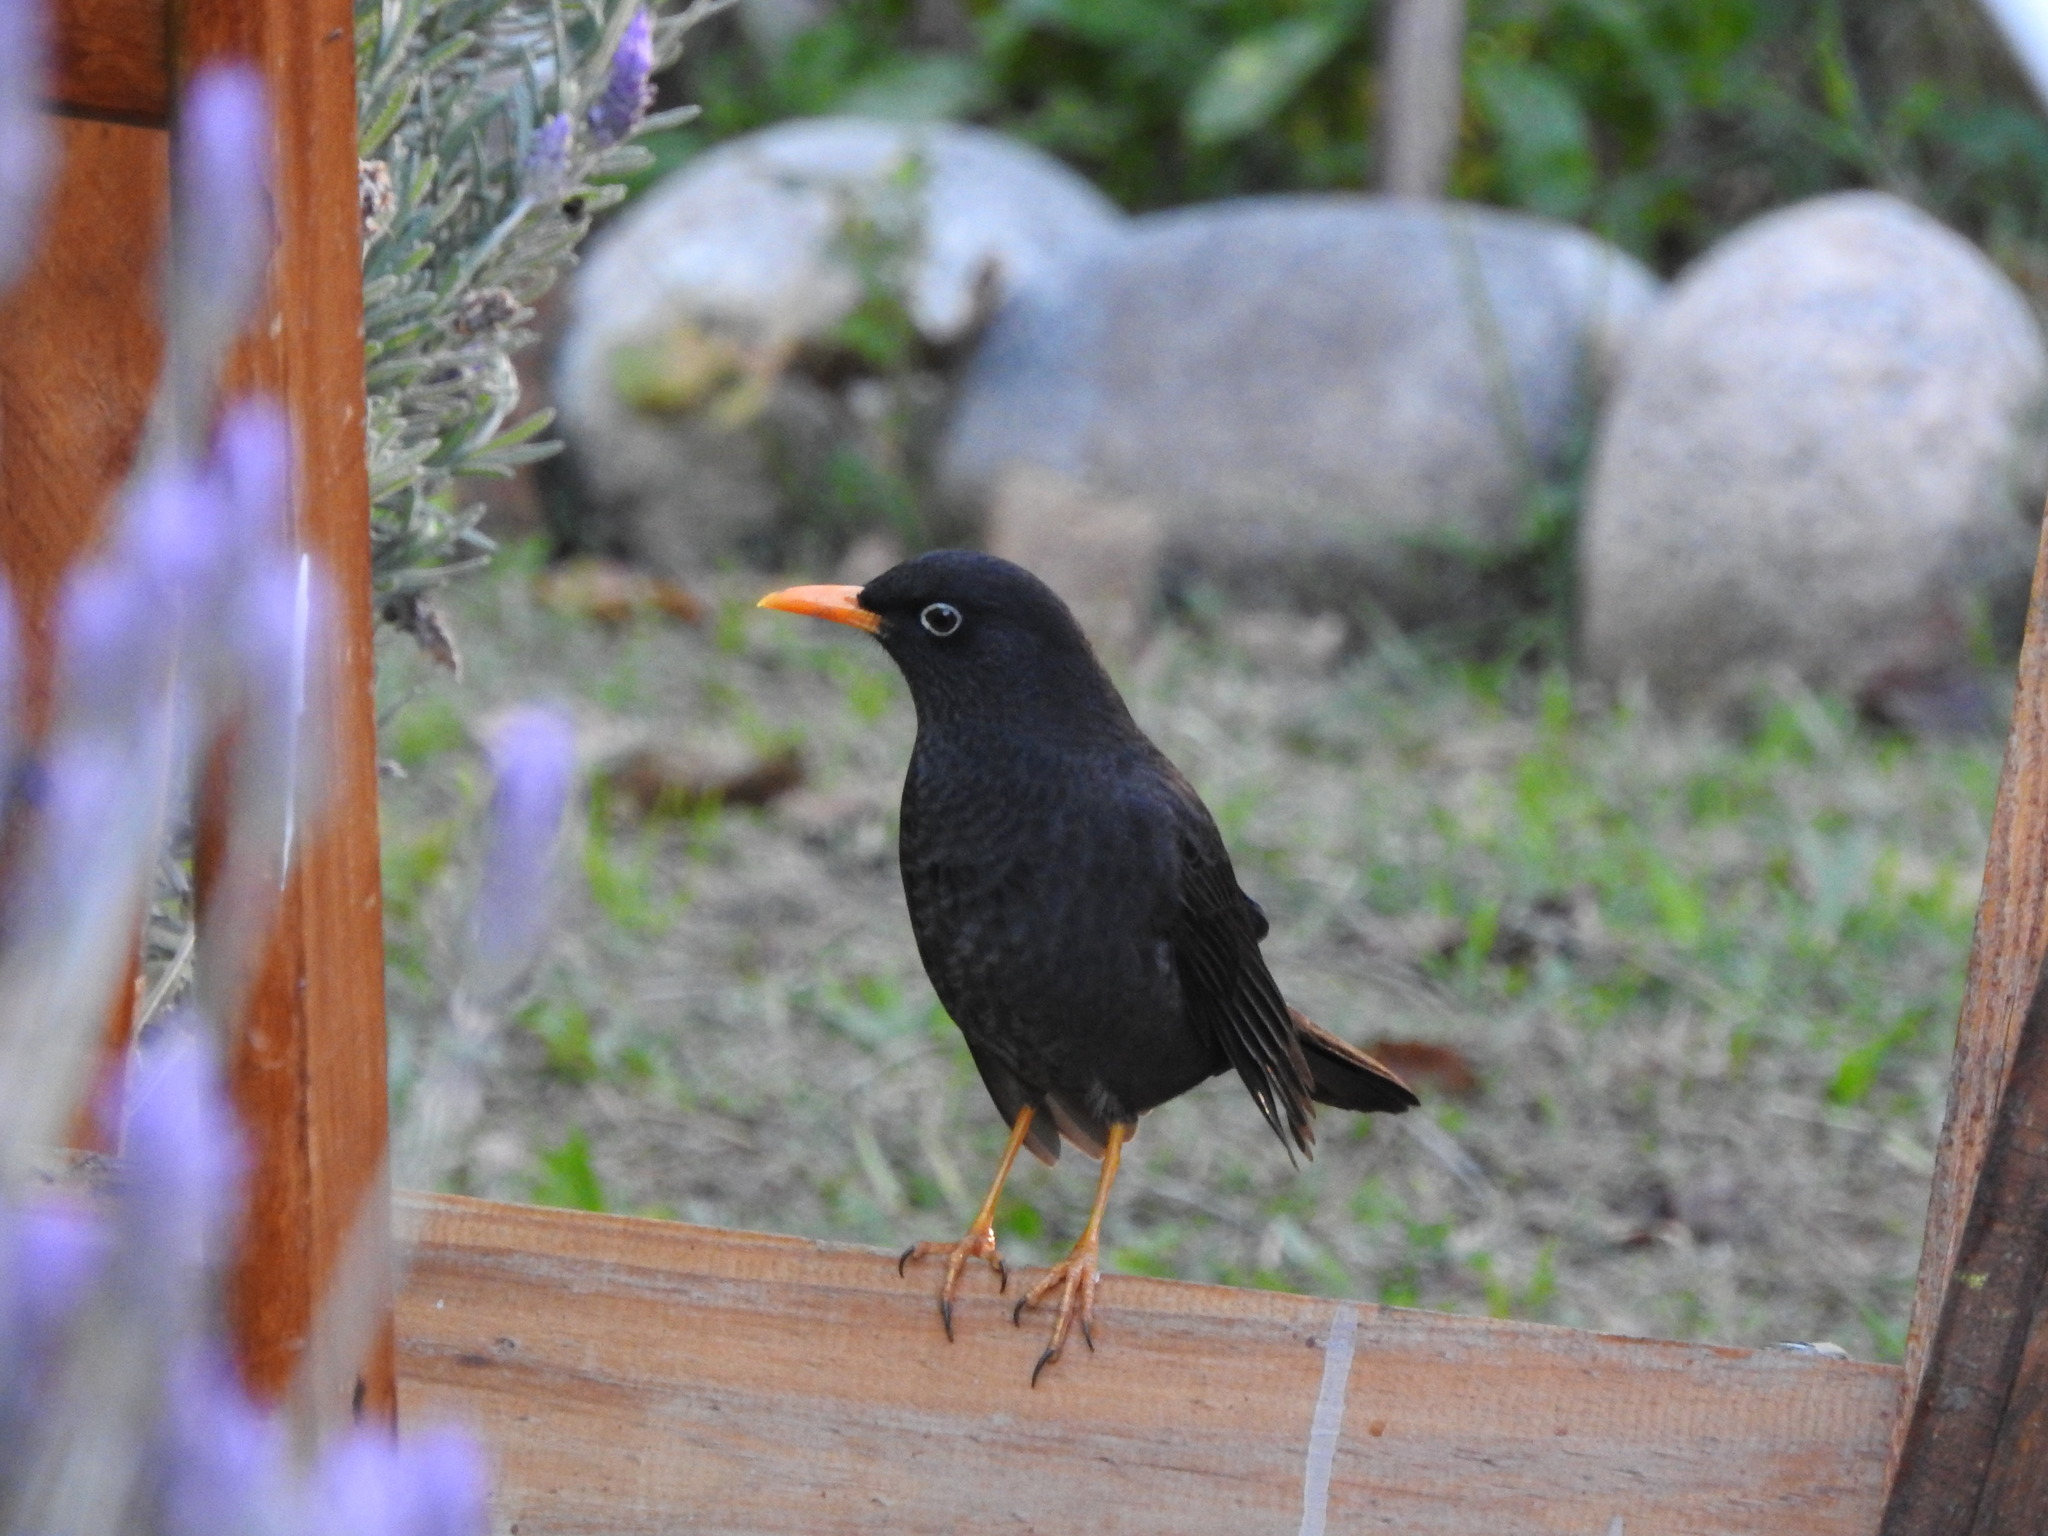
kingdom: Animalia
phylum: Chordata
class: Aves
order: Passeriformes
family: Turdidae
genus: Turdus
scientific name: Turdus chiguanco
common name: Chiguanco thrush
